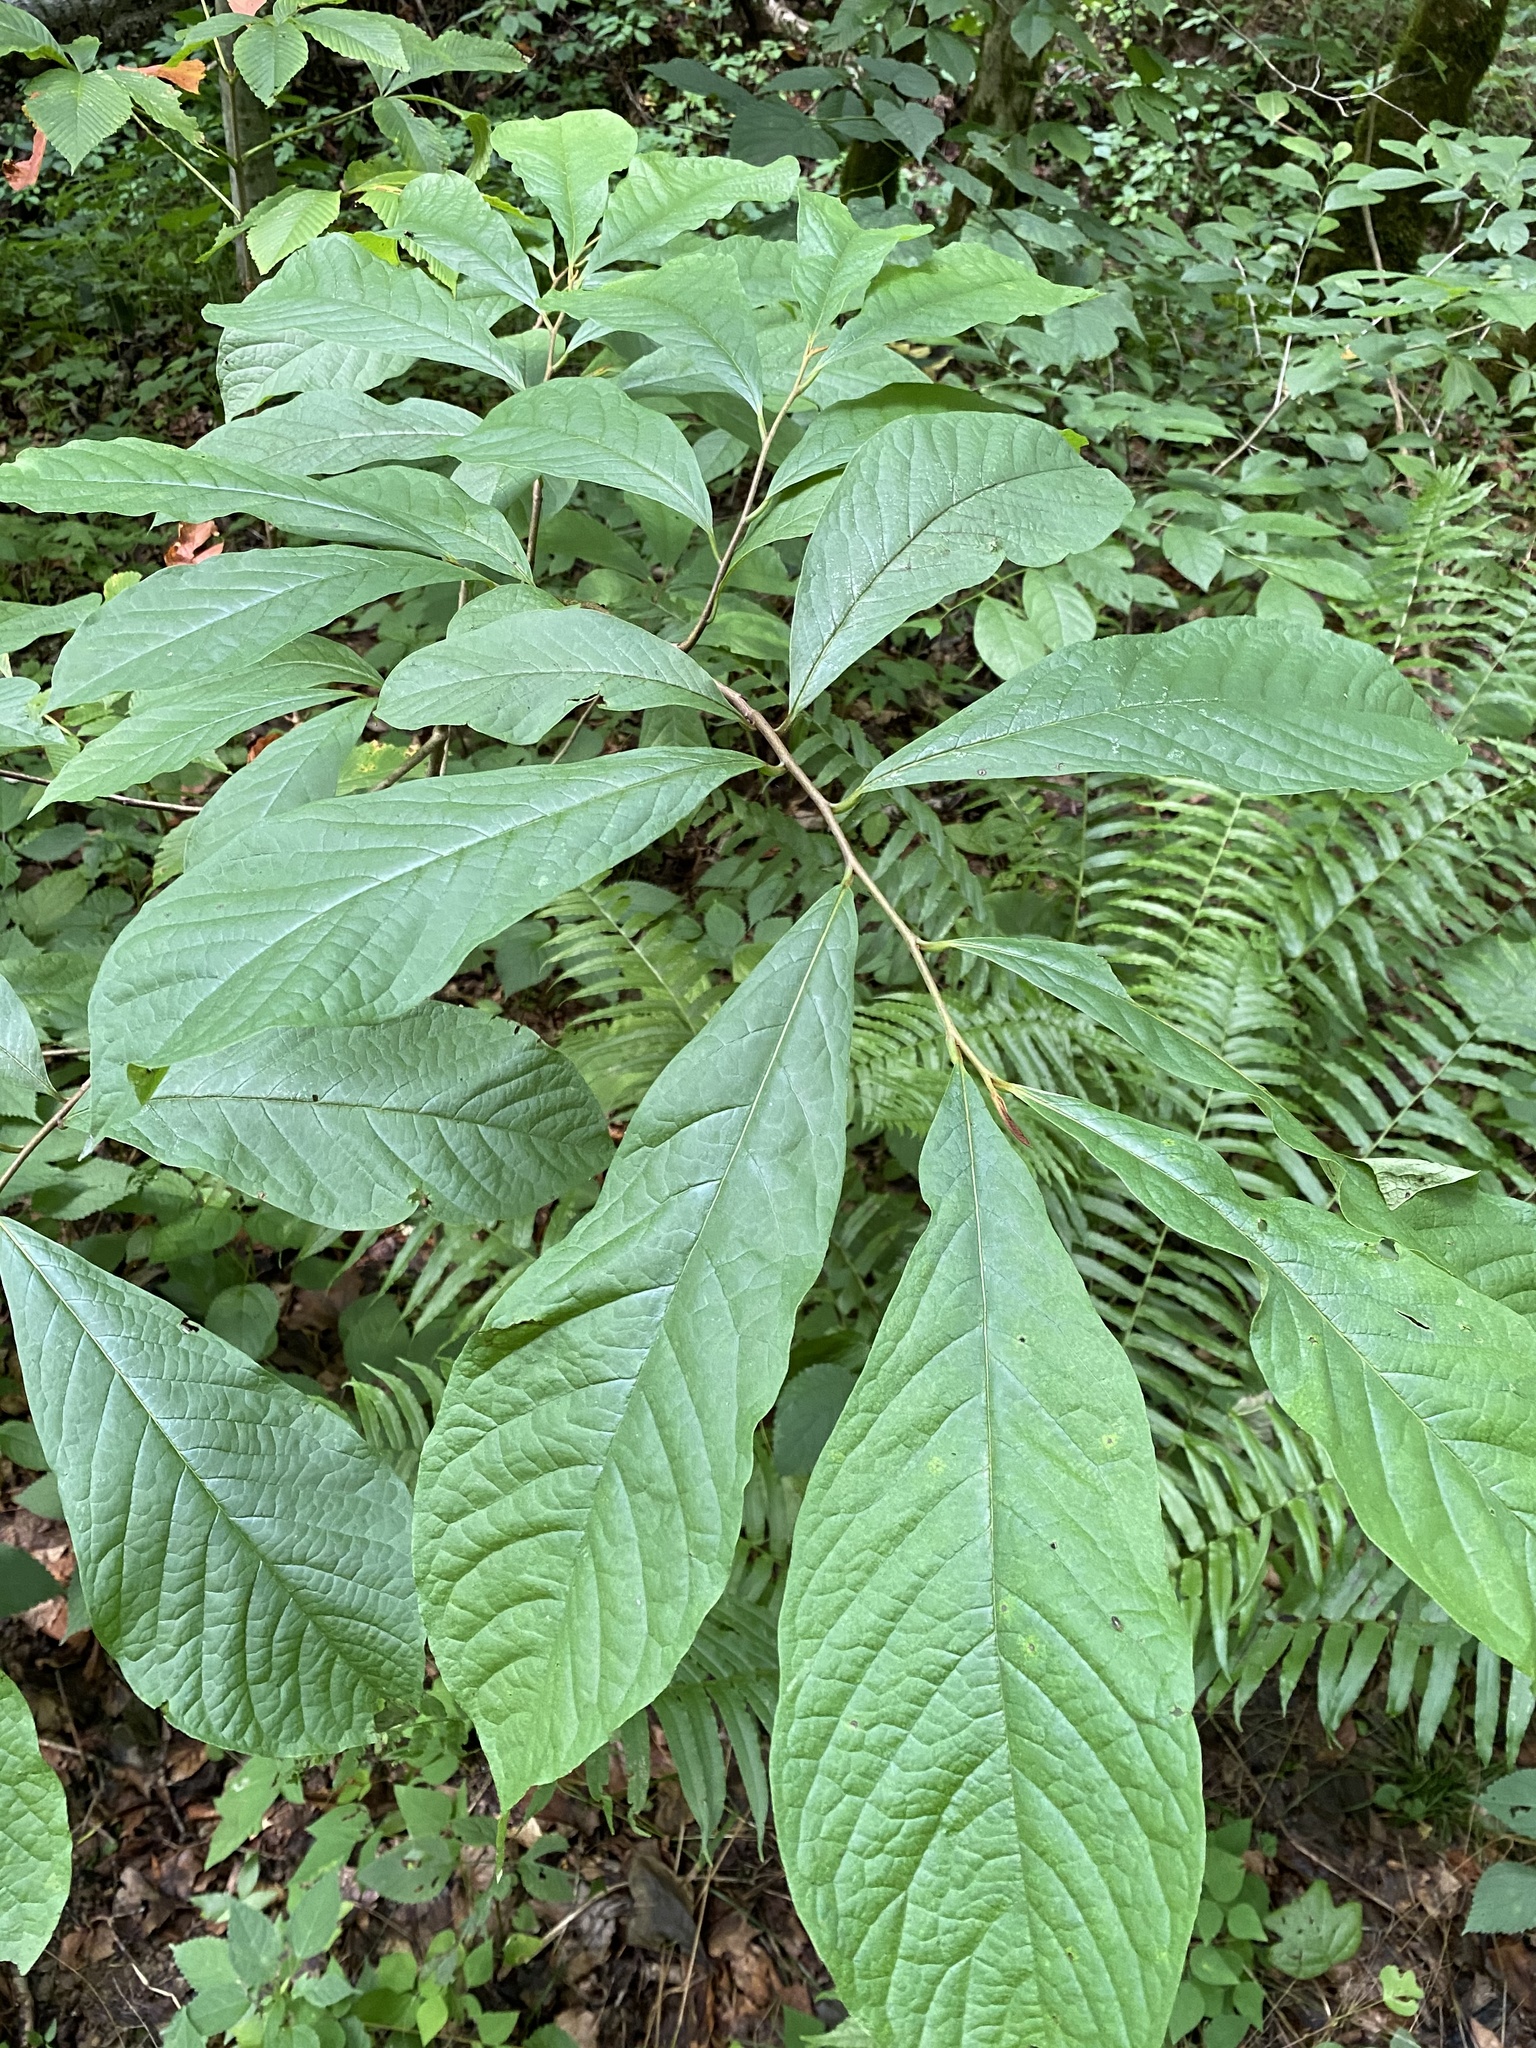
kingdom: Plantae
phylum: Tracheophyta
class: Magnoliopsida
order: Magnoliales
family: Annonaceae
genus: Asimina
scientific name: Asimina triloba
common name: Dog-banana
